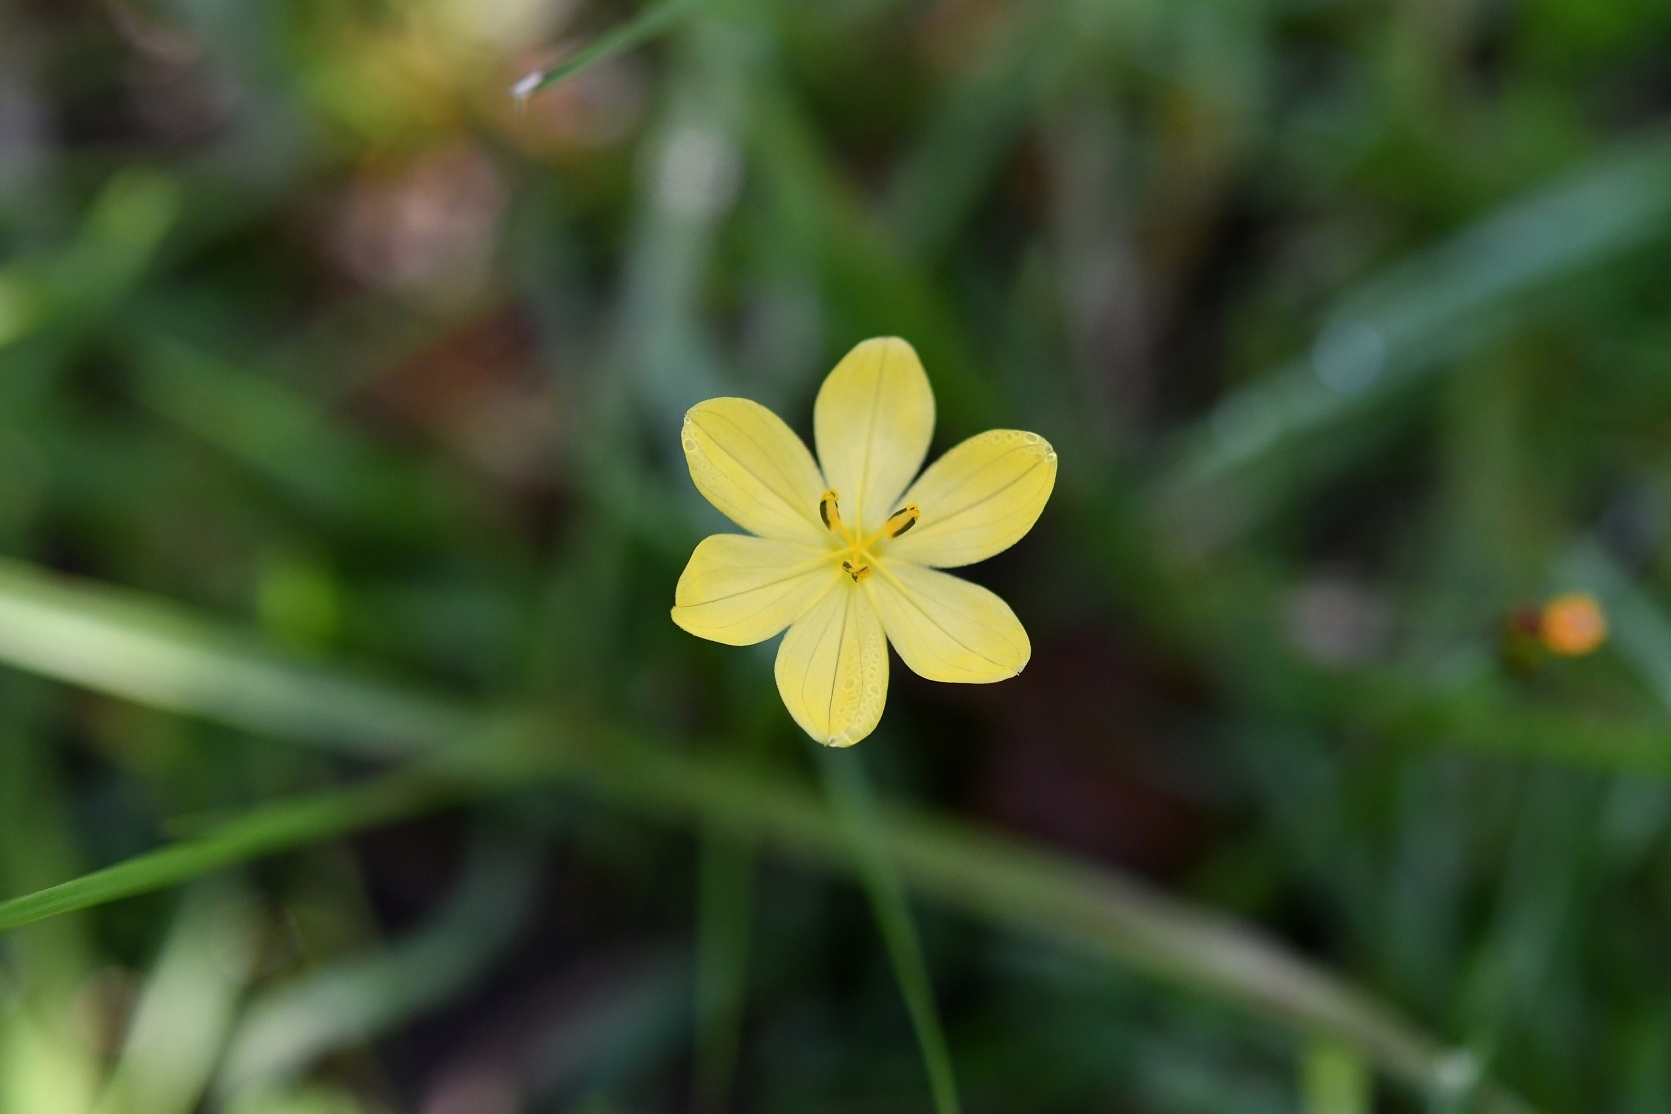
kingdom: Plantae
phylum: Tracheophyta
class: Liliopsida
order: Asparagales
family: Iridaceae
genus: Sisyrinchium
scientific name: Sisyrinchium tenuifolium
